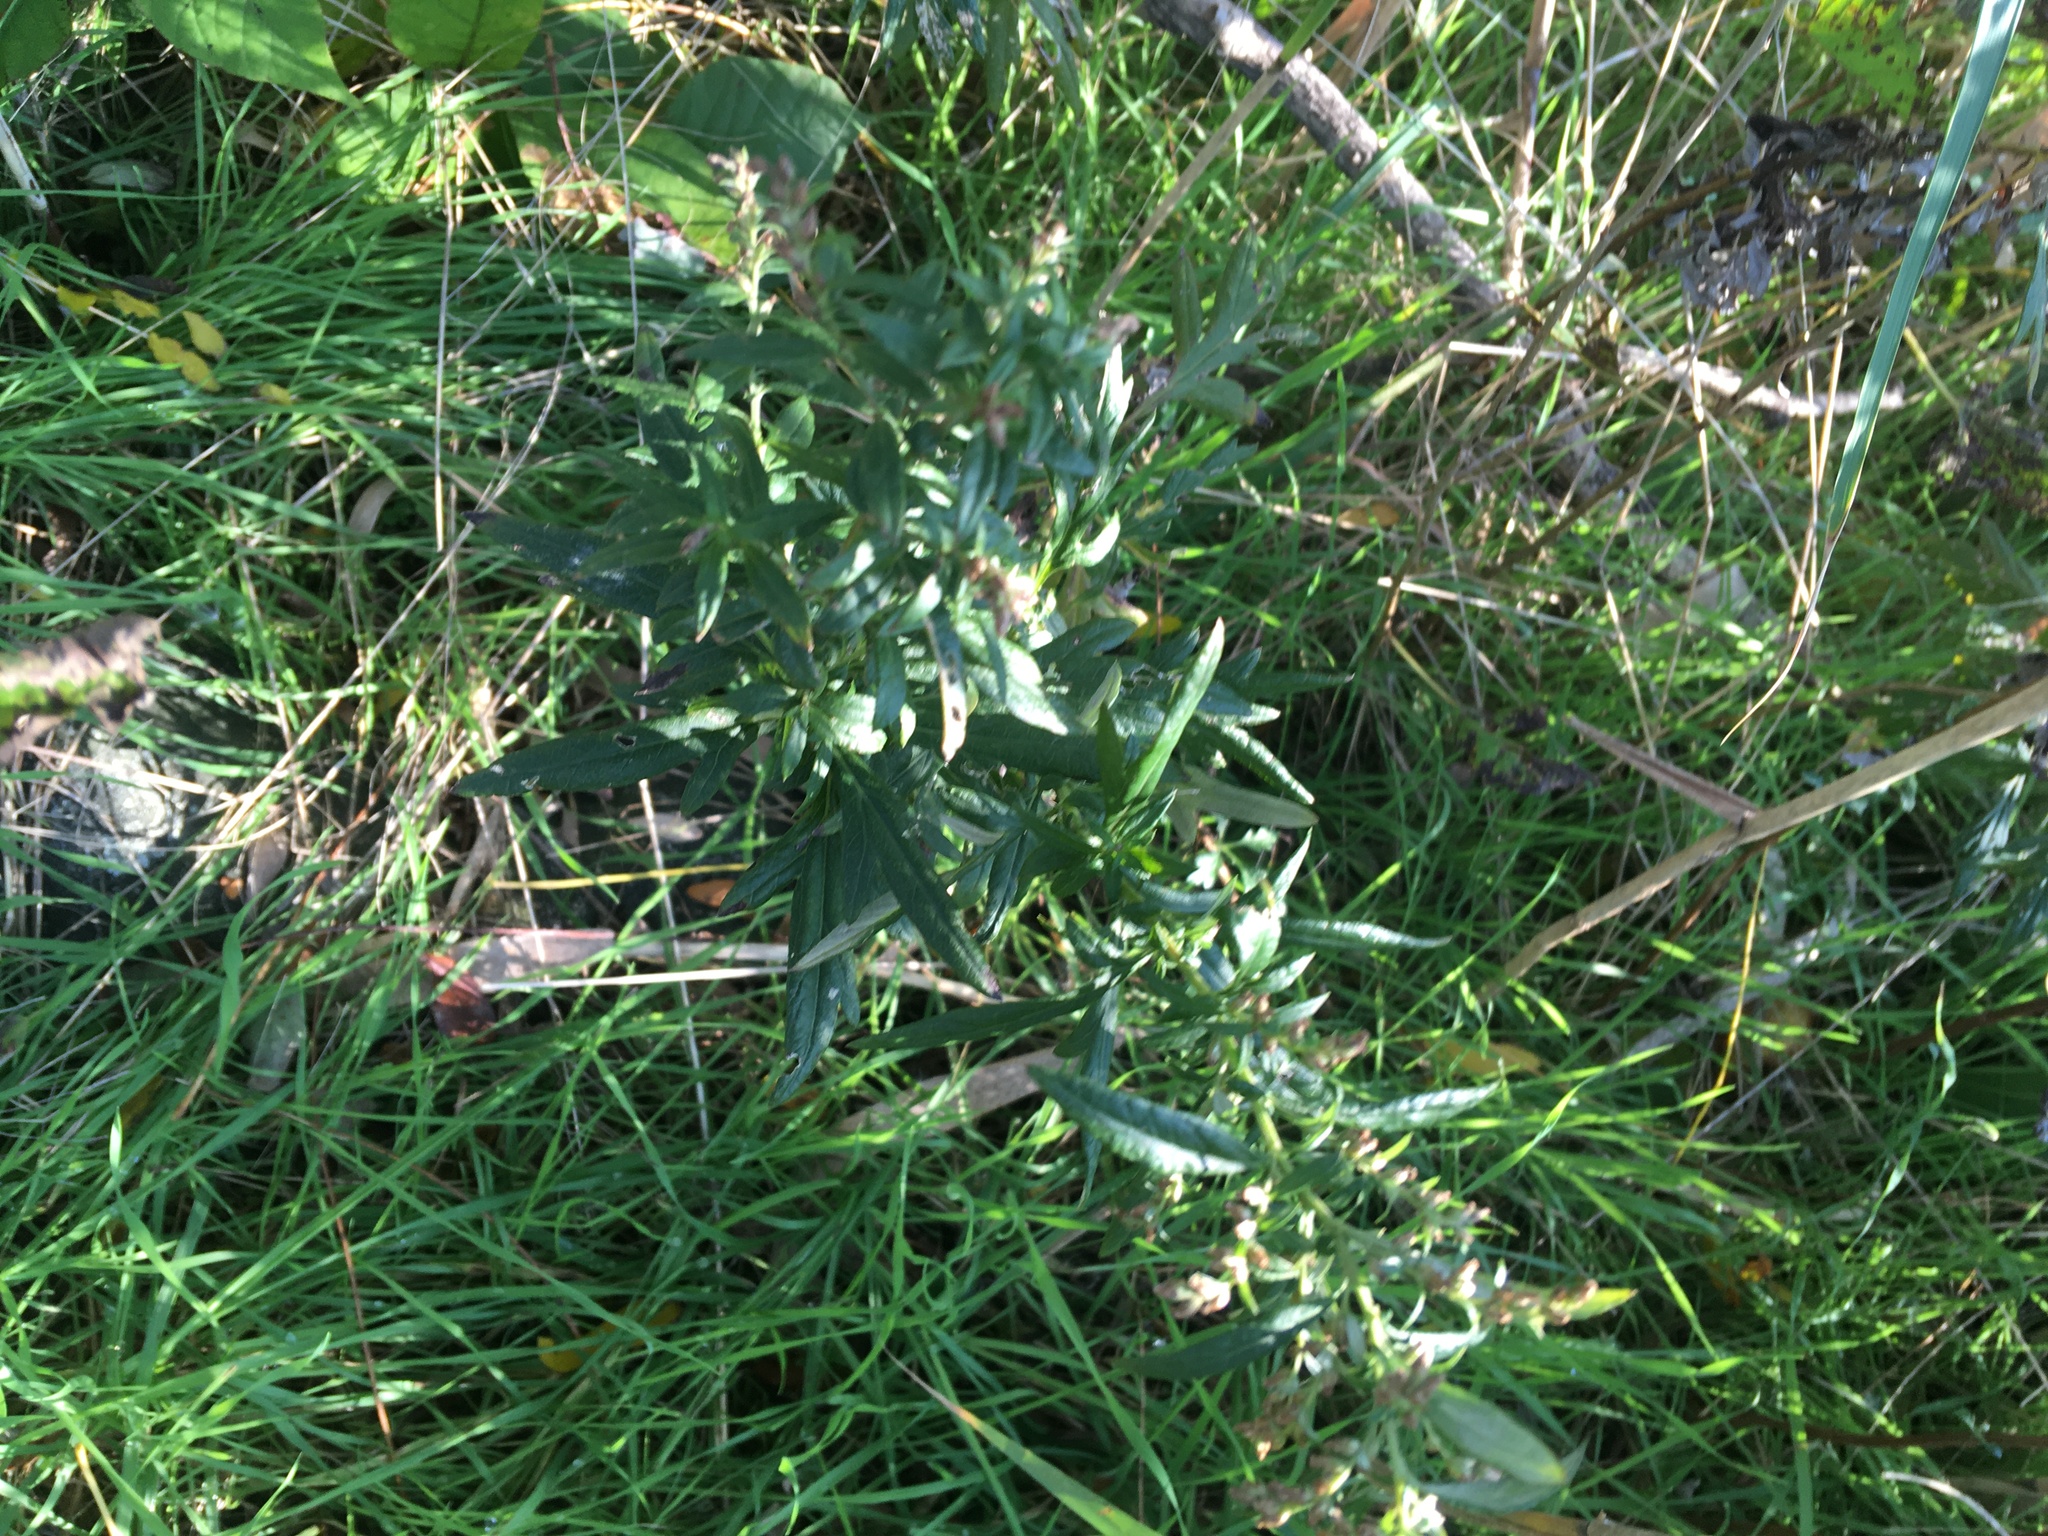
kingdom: Plantae
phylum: Tracheophyta
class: Magnoliopsida
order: Asterales
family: Asteraceae
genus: Artemisia
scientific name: Artemisia vulgaris
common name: Mugwort
